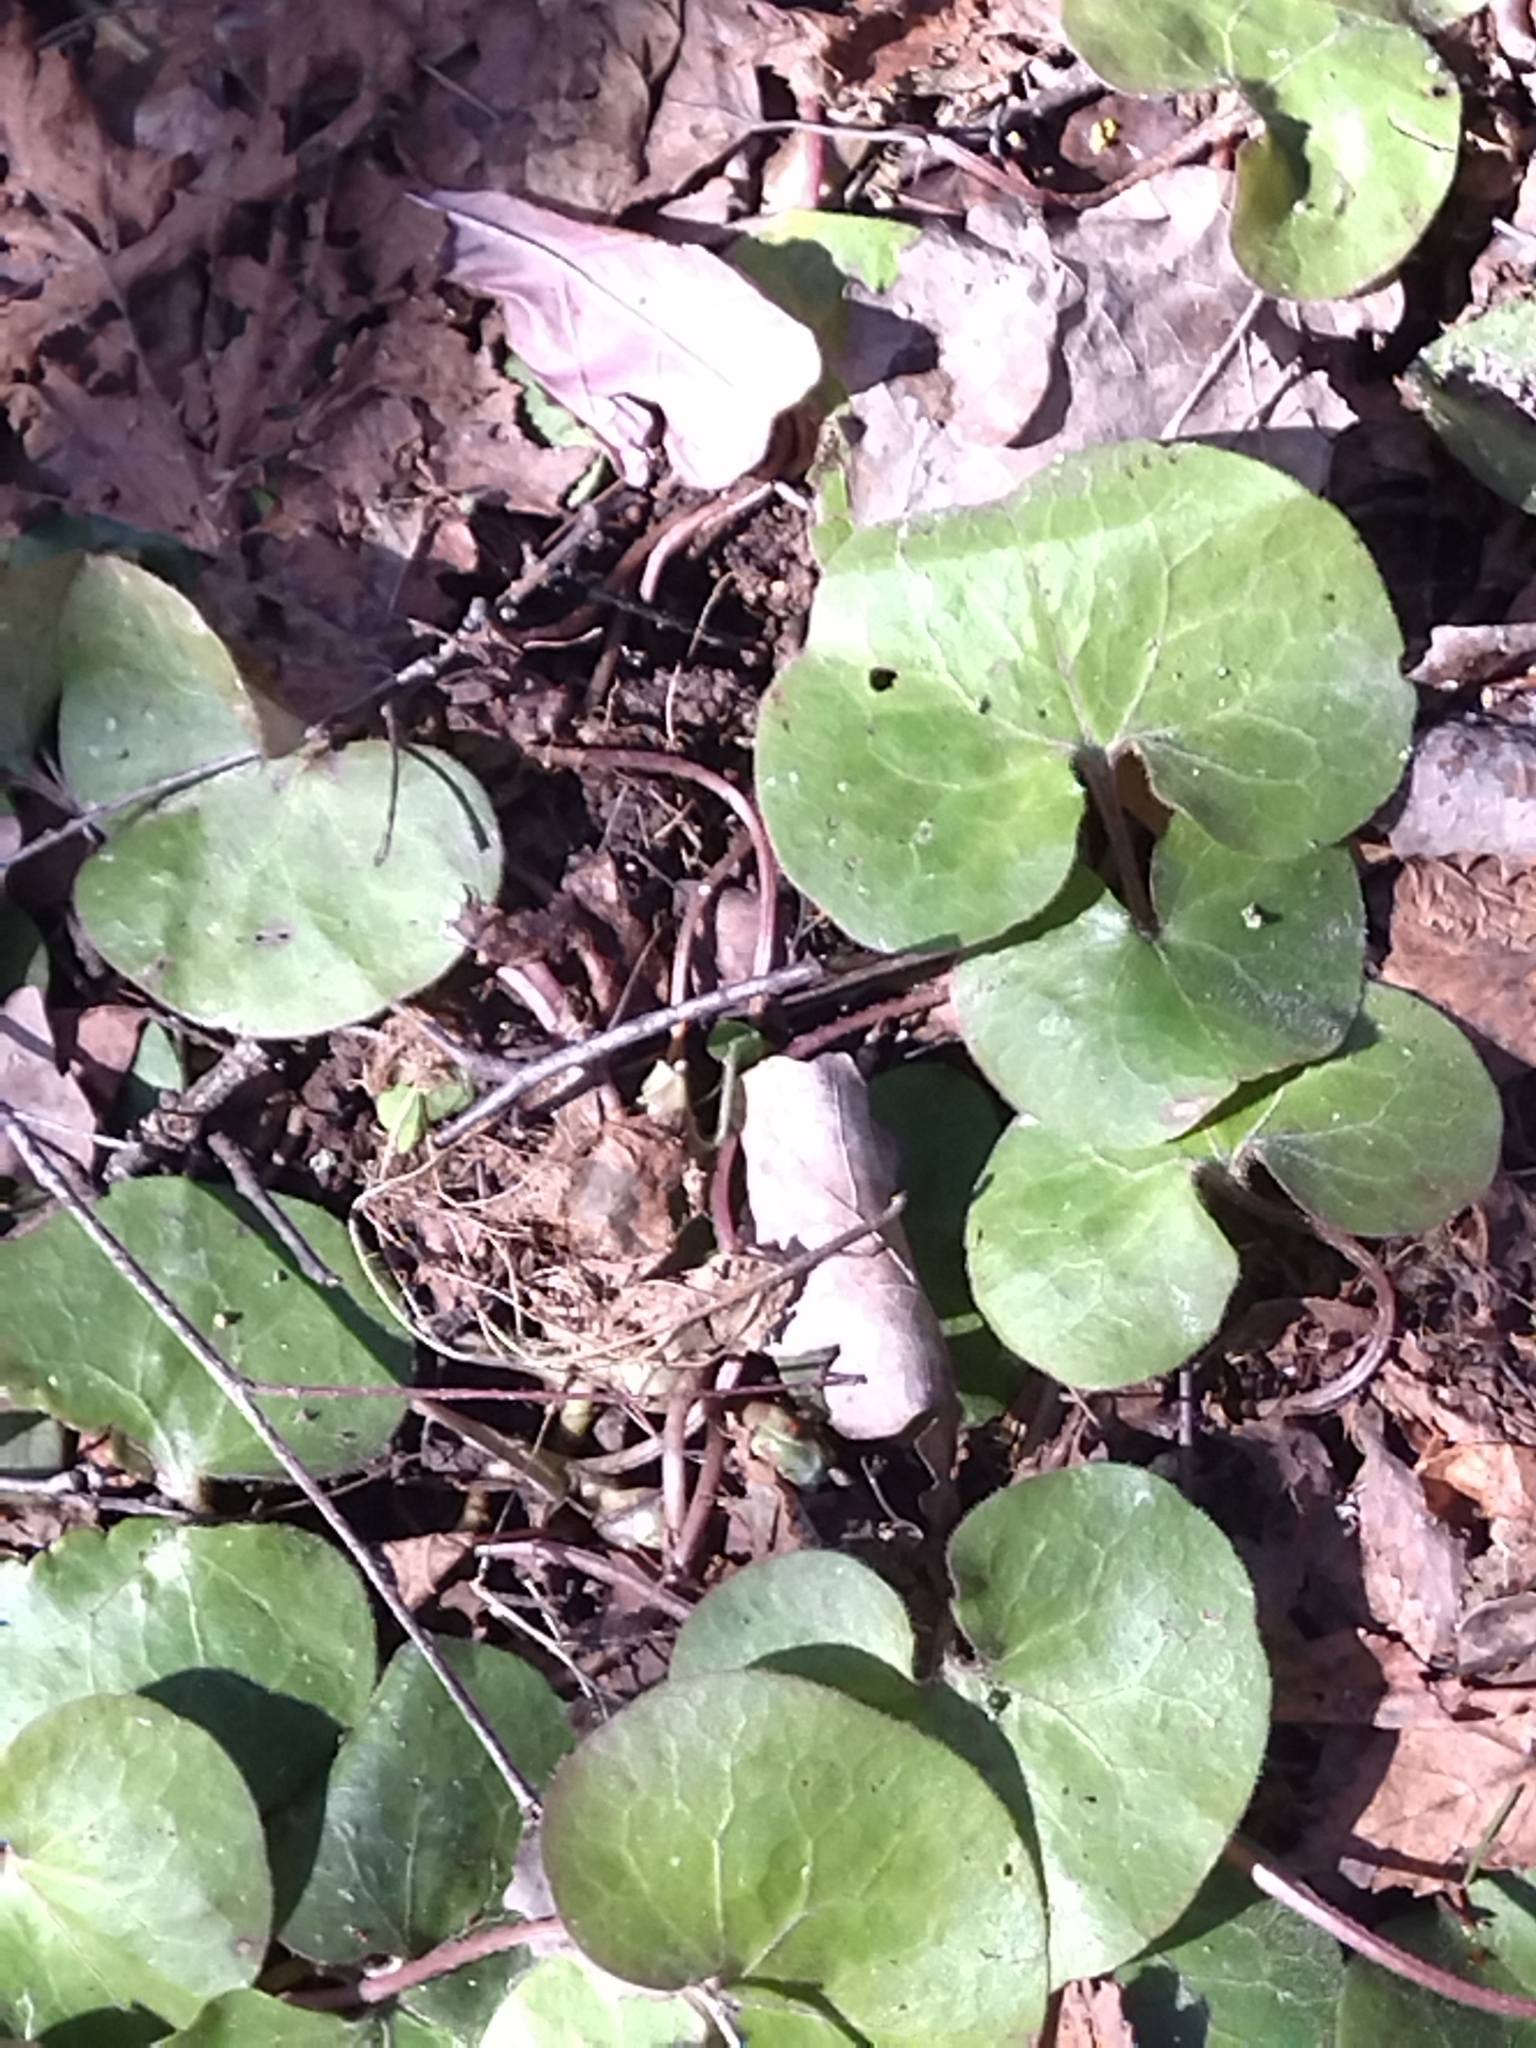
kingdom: Plantae
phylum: Tracheophyta
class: Magnoliopsida
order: Piperales
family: Aristolochiaceae
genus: Asarum
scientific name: Asarum europaeum
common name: Asarabacca
